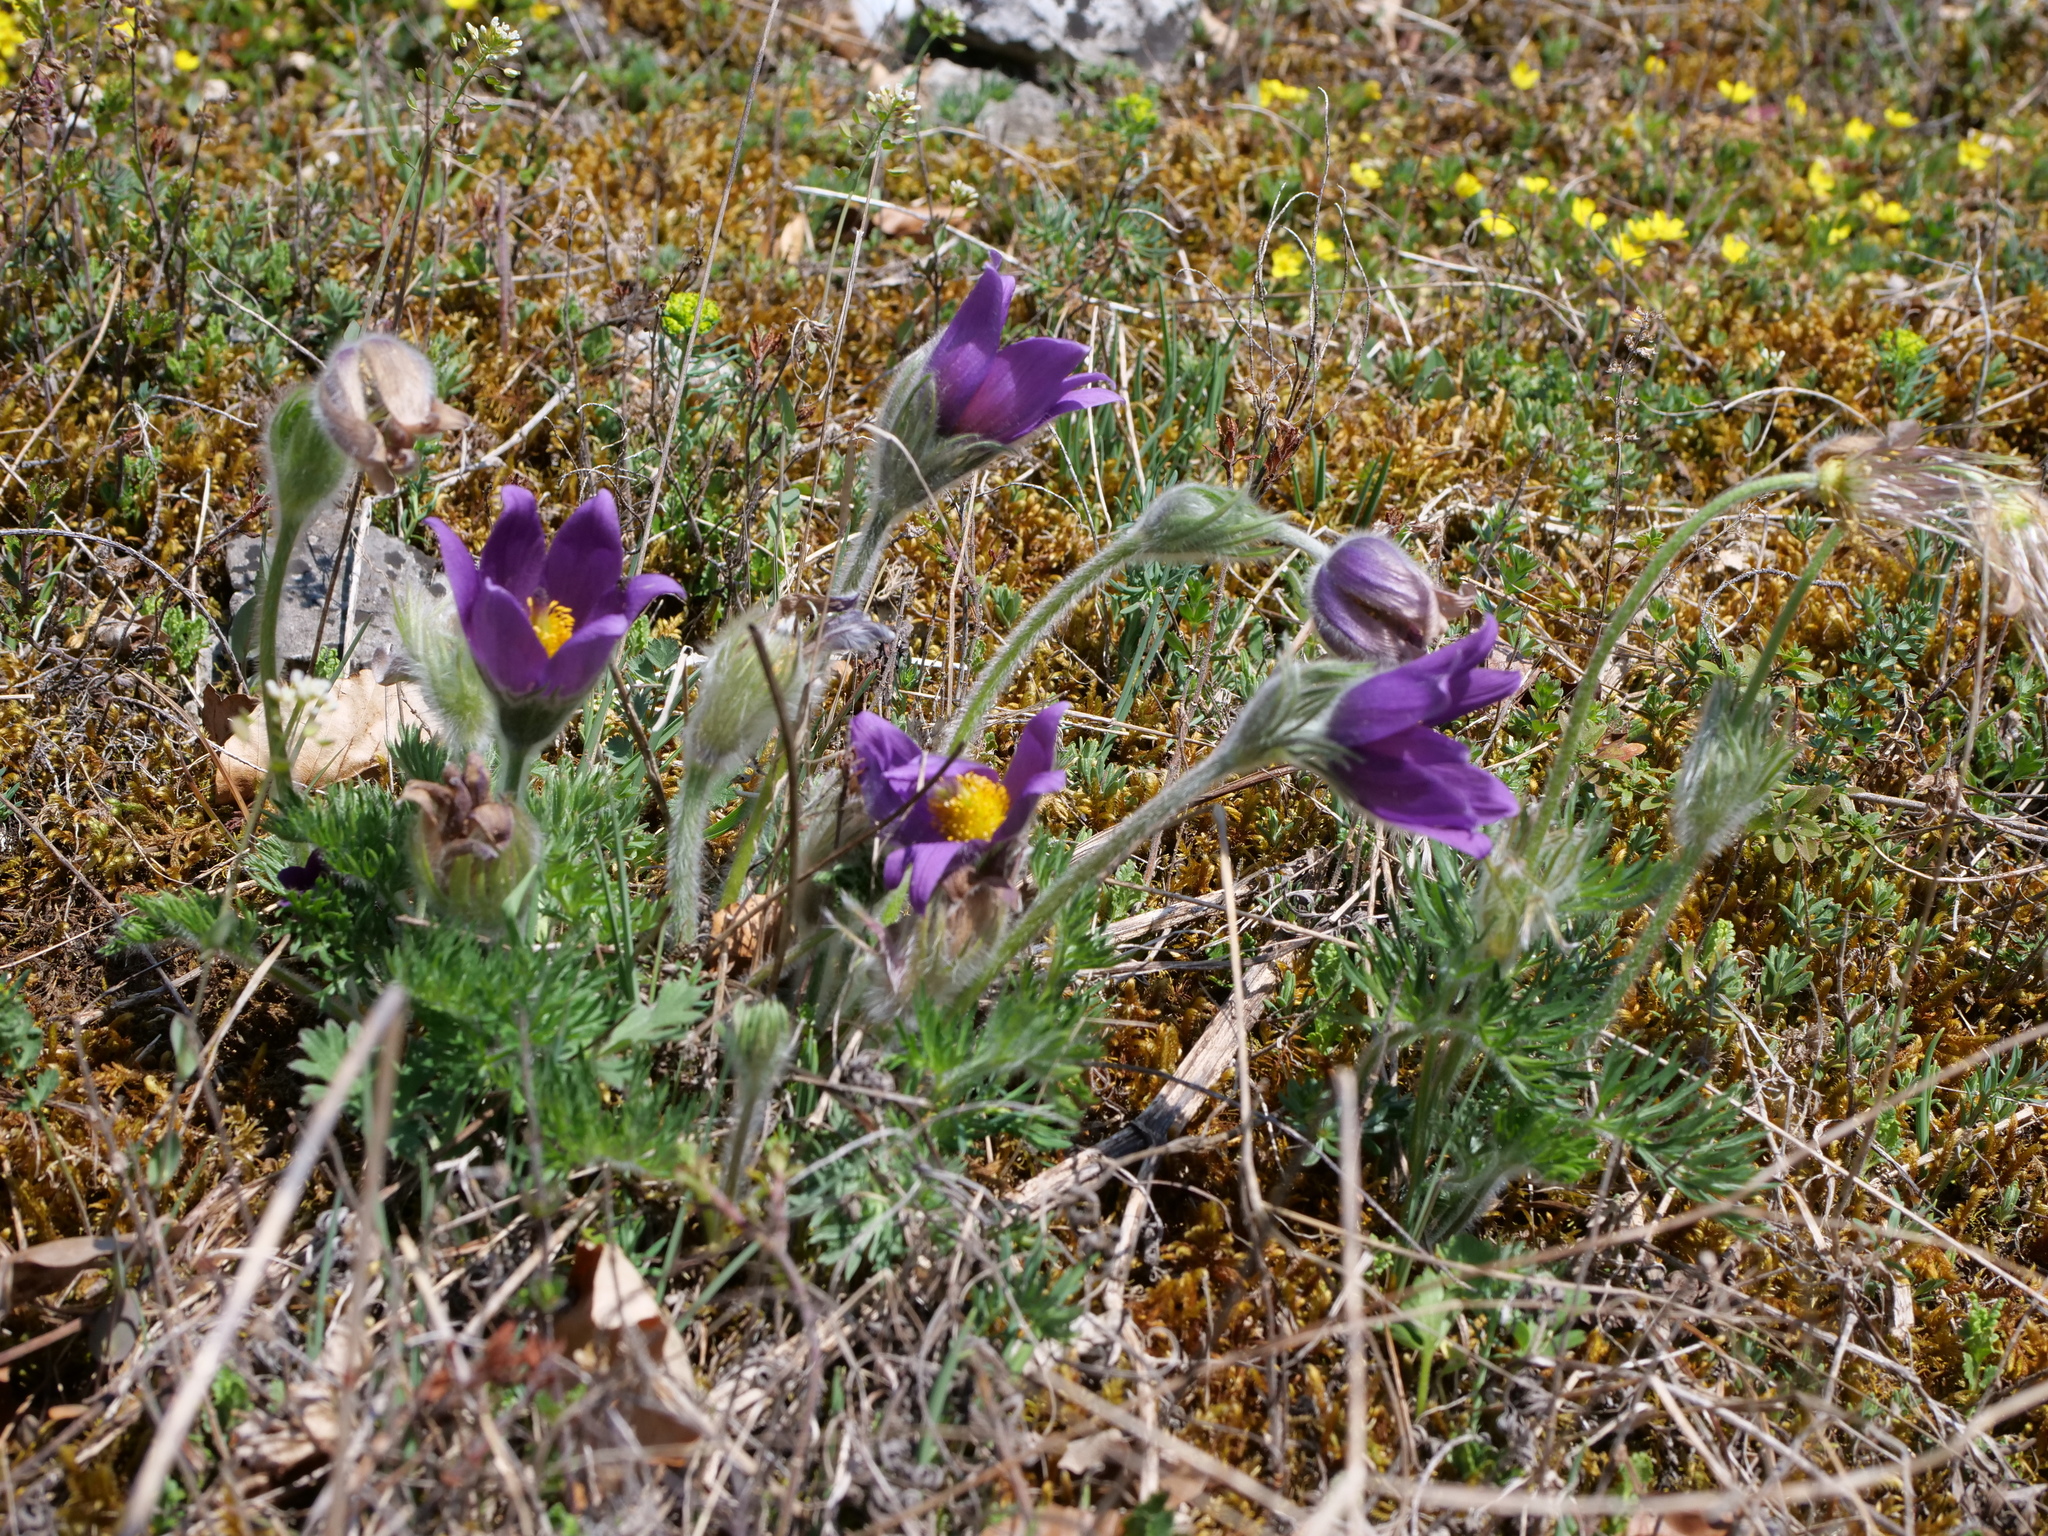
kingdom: Plantae
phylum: Tracheophyta
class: Magnoliopsida
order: Ranunculales
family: Ranunculaceae
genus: Pulsatilla
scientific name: Pulsatilla vulgaris
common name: Pasqueflower
